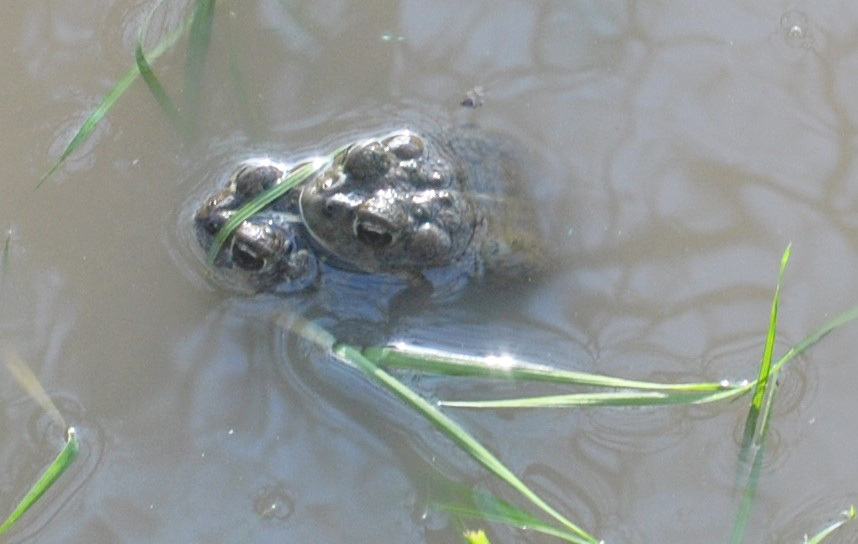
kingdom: Animalia
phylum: Chordata
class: Amphibia
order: Anura
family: Bufonidae
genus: Anaxyrus
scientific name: Anaxyrus boreas
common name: Western toad
